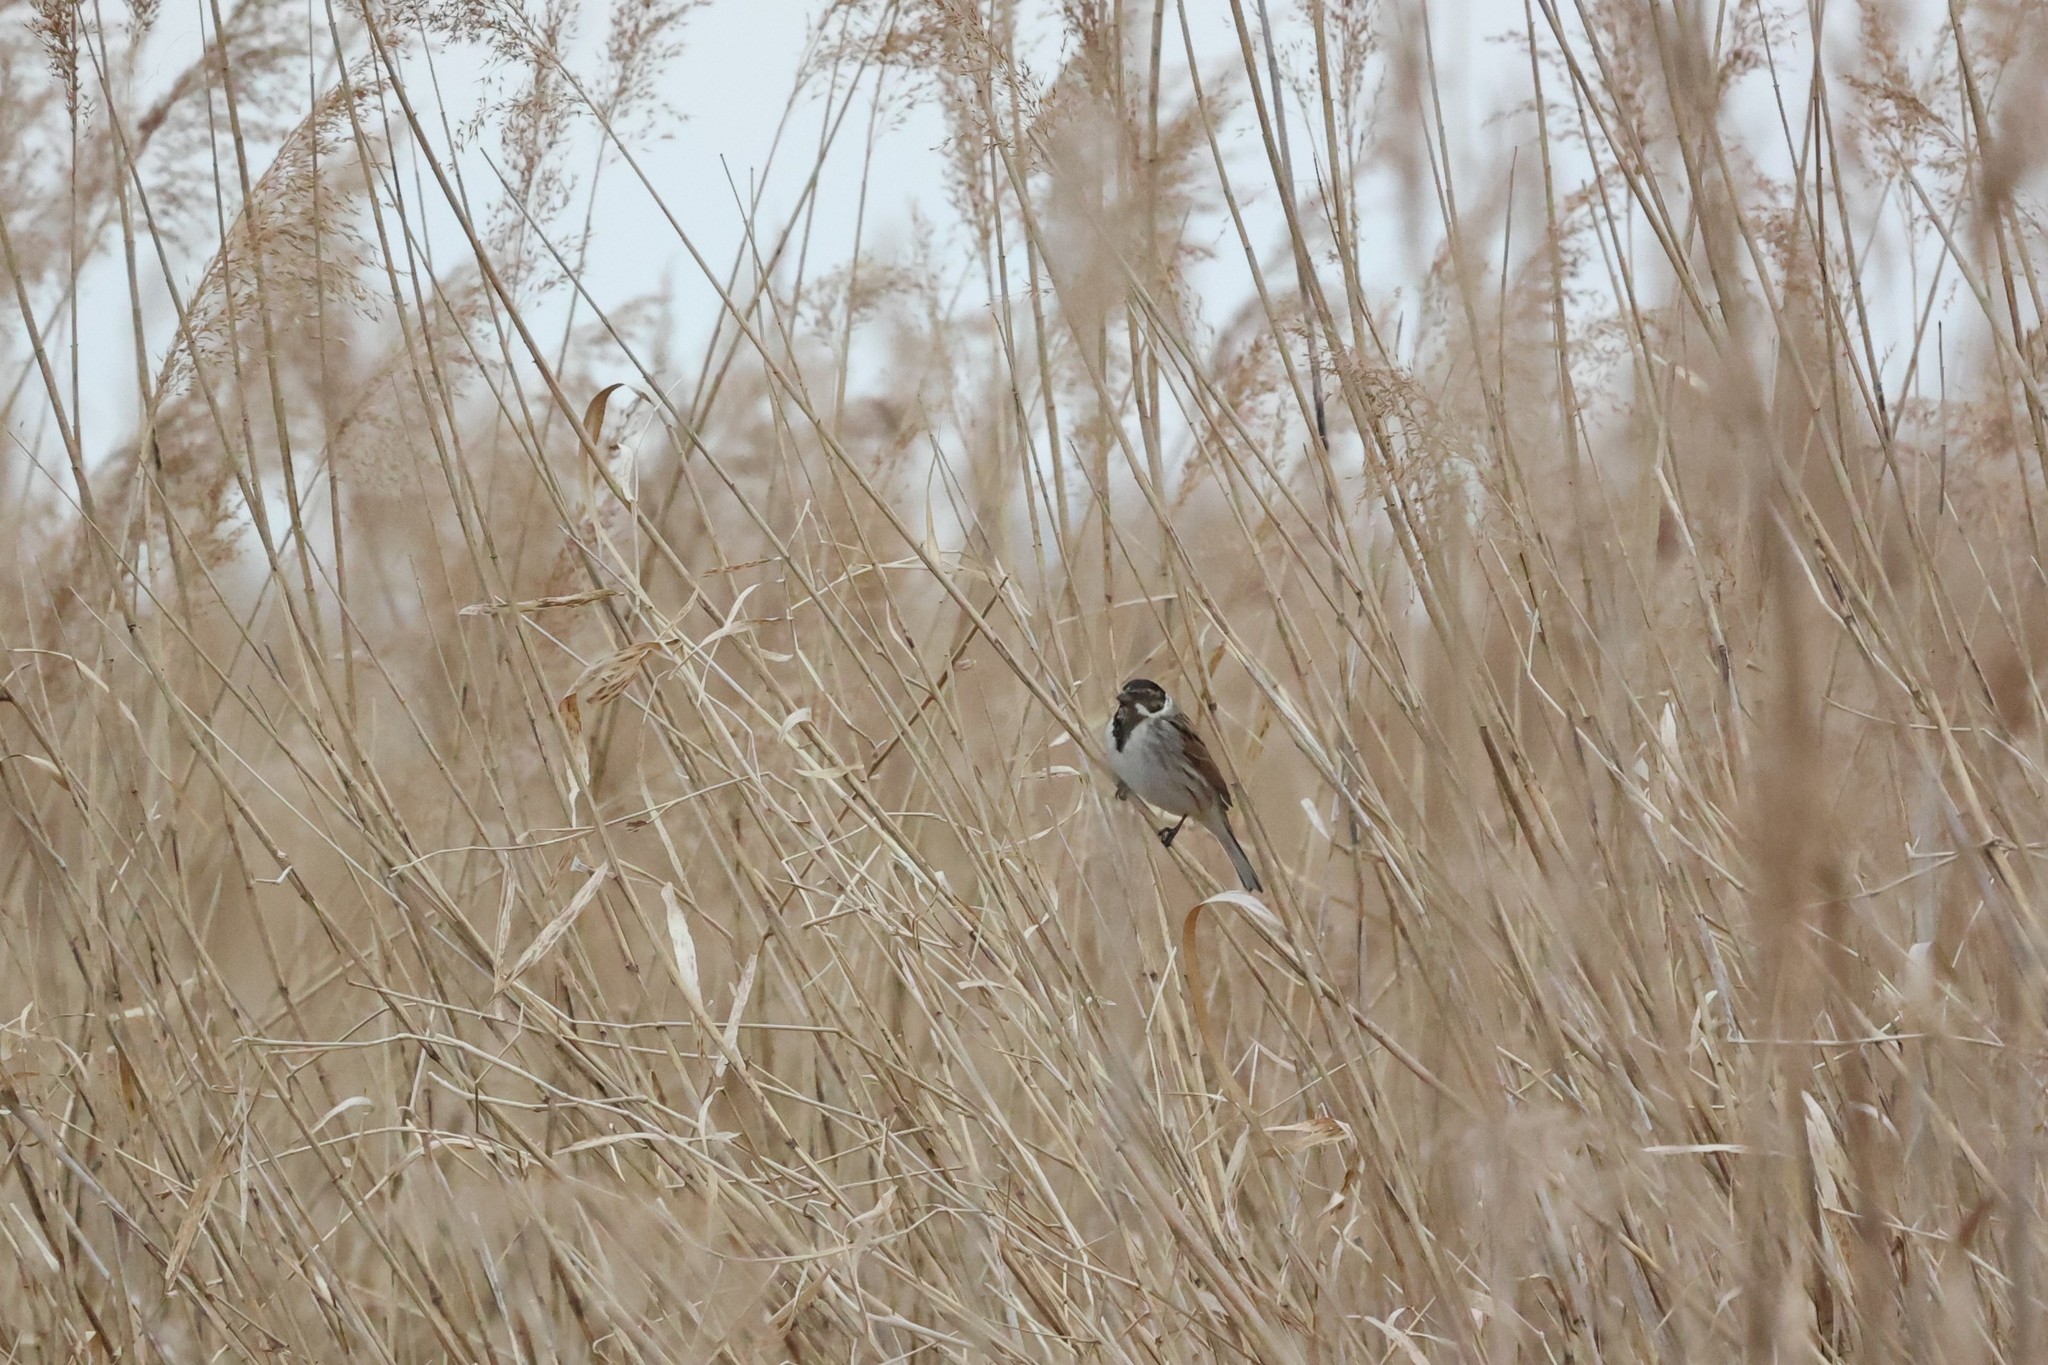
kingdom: Animalia
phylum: Chordata
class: Aves
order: Passeriformes
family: Emberizidae
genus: Emberiza
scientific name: Emberiza schoeniclus
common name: Reed bunting
